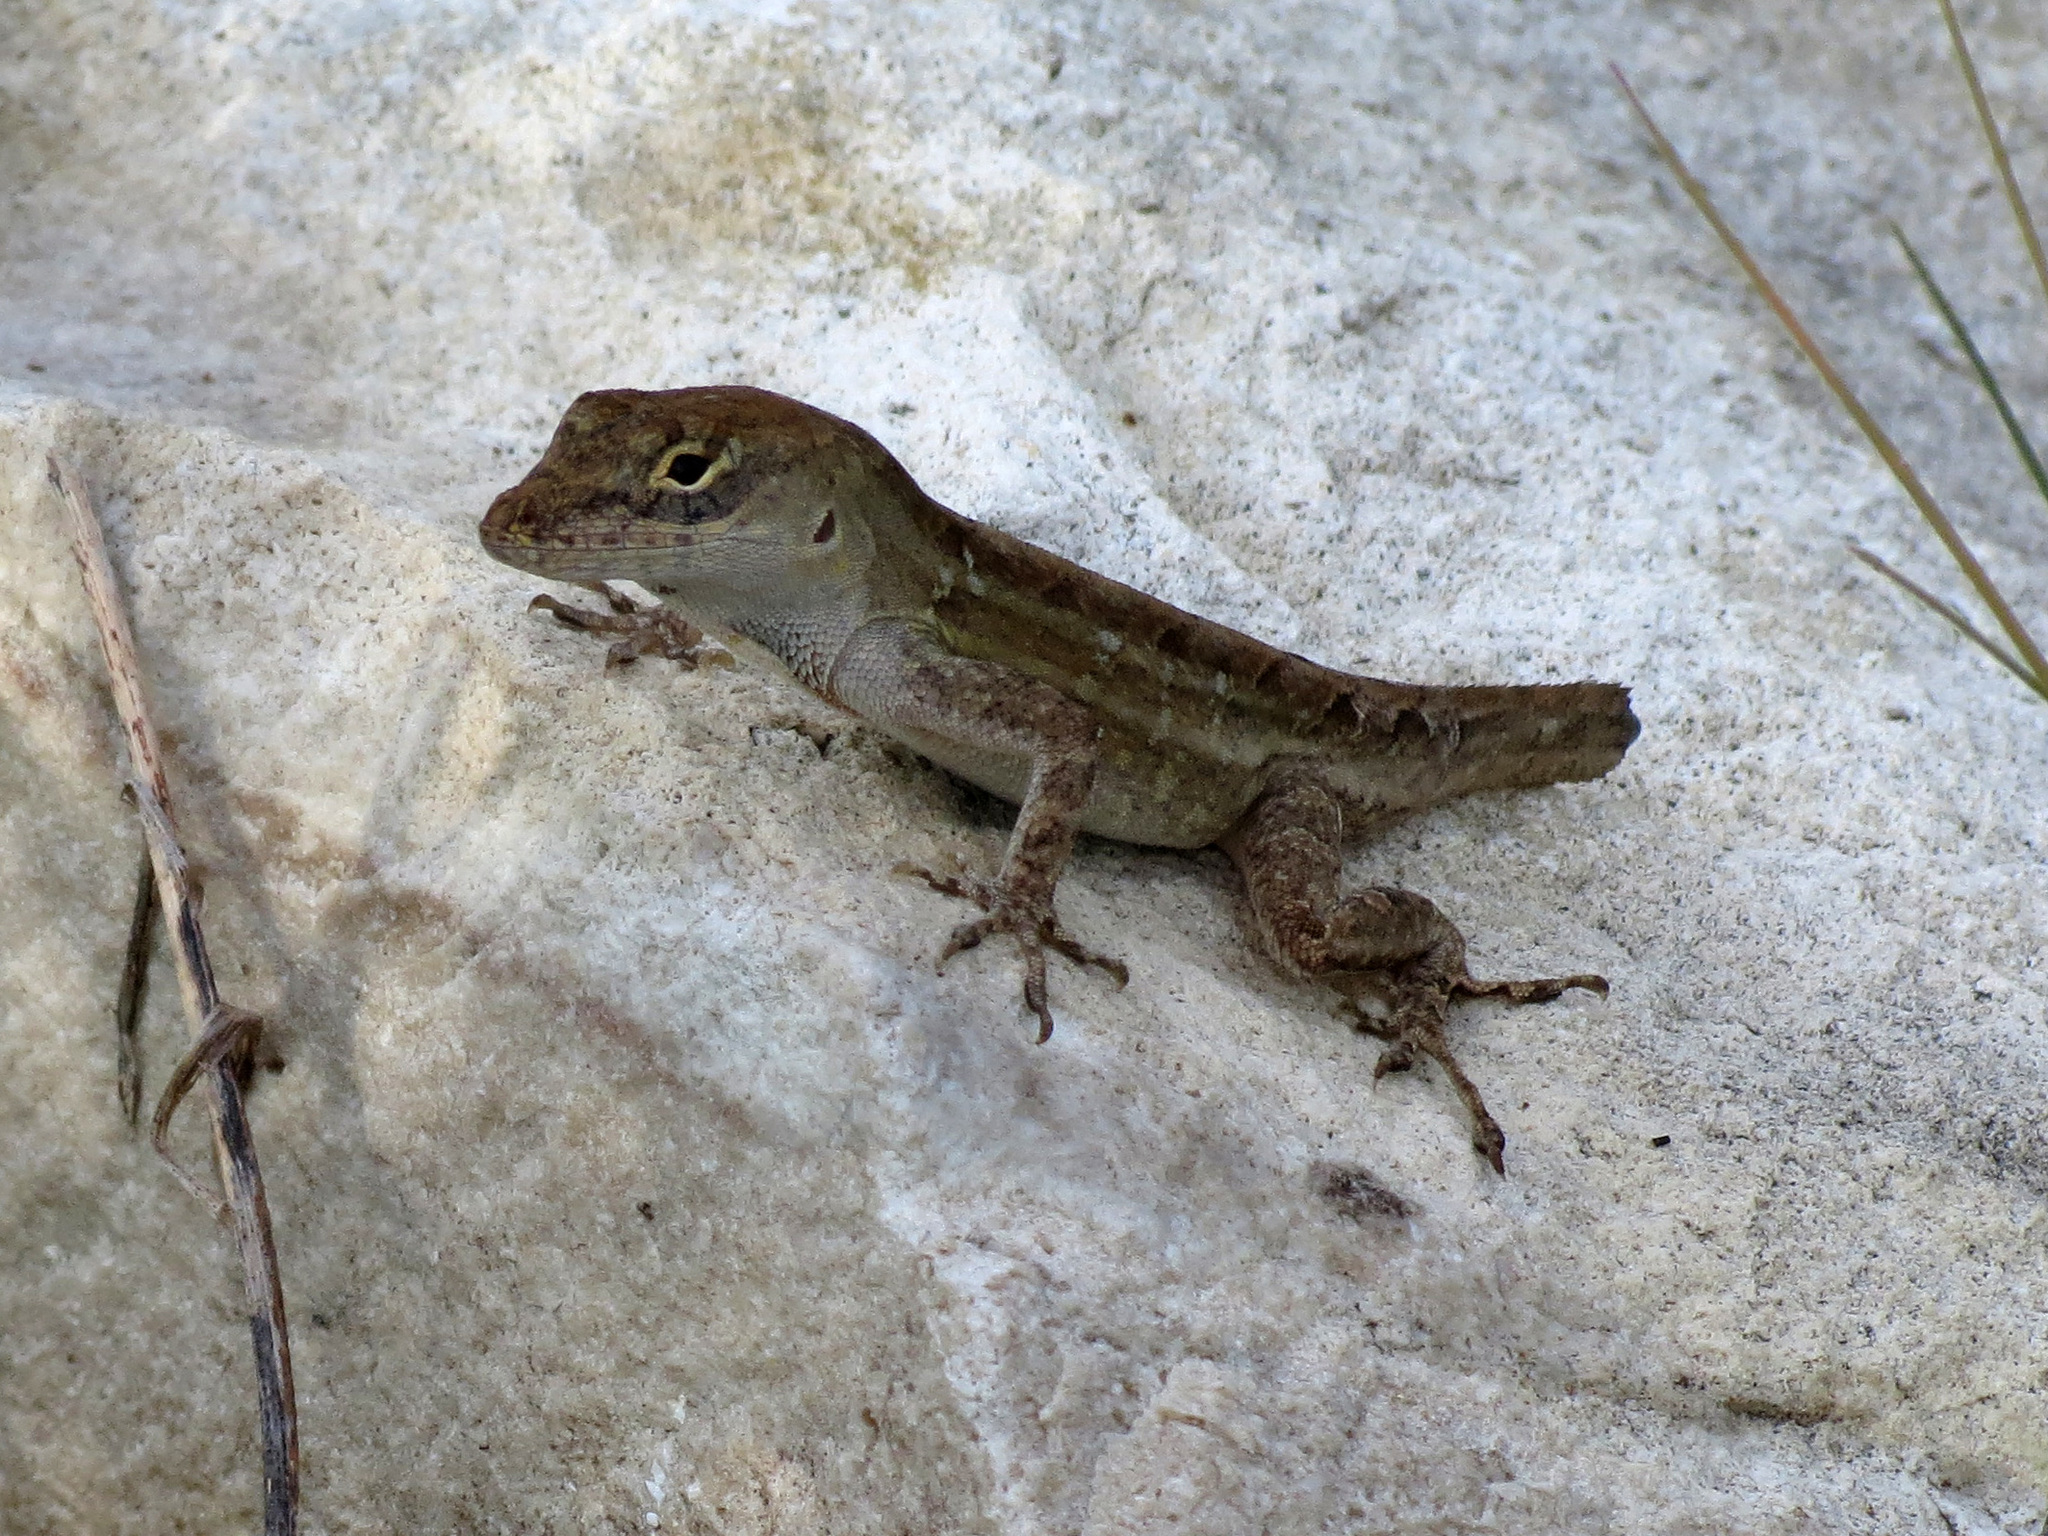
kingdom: Animalia
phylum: Chordata
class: Squamata
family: Dactyloidae
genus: Anolis
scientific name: Anolis sagrei
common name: Brown anole
